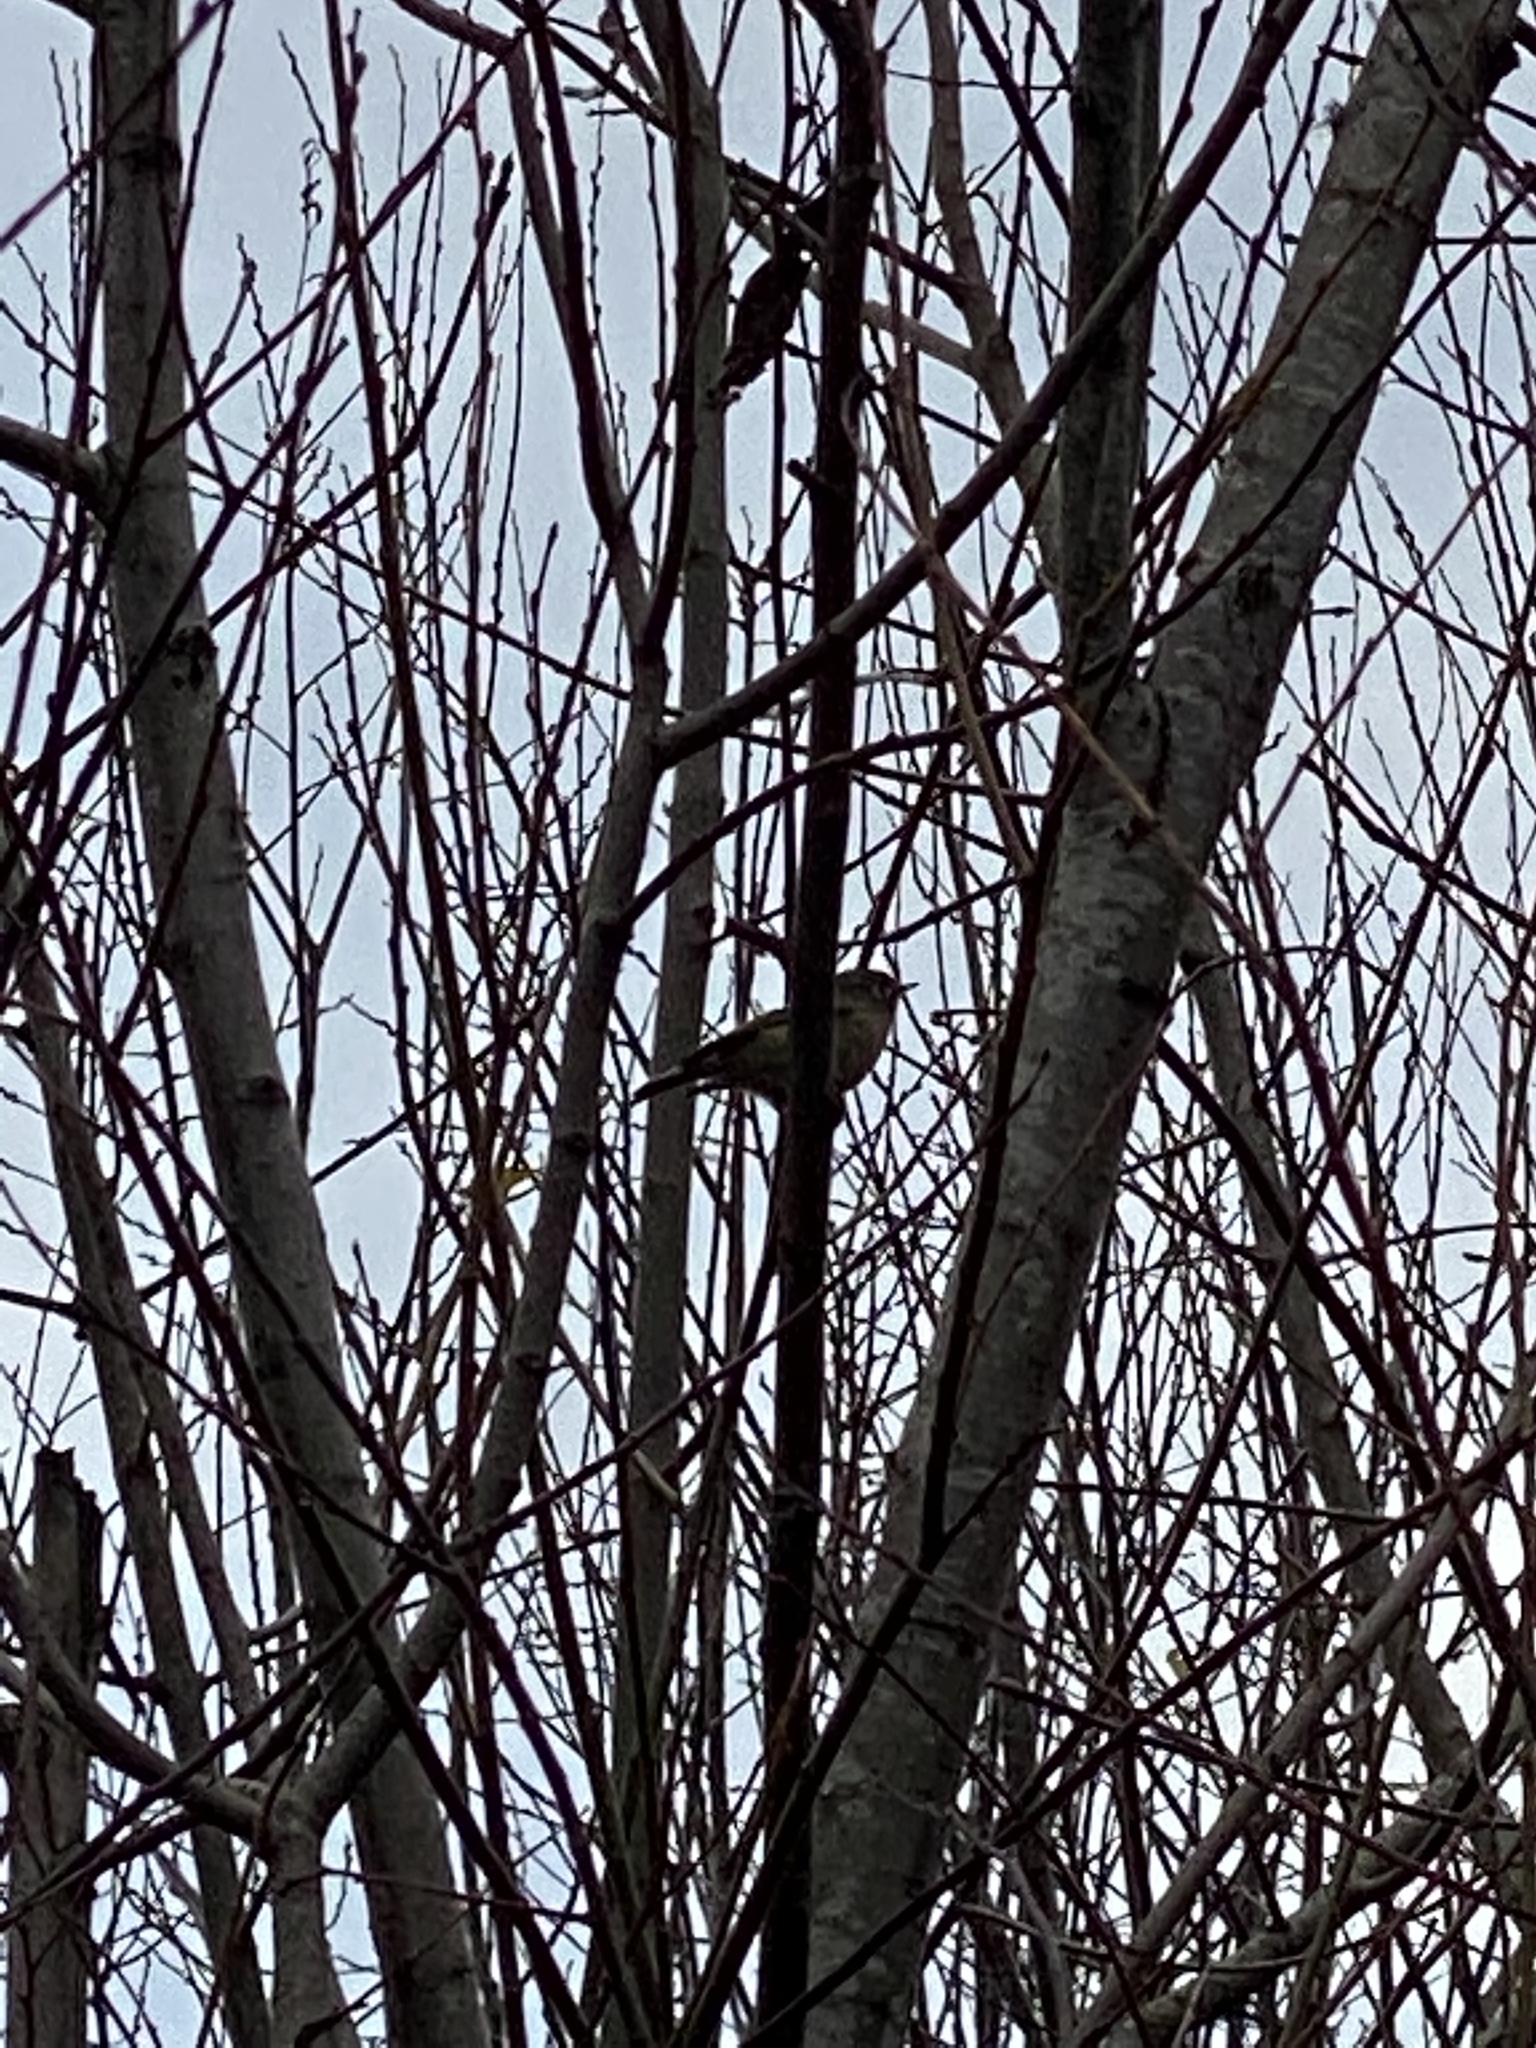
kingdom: Animalia
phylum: Chordata
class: Aves
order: Passeriformes
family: Regulidae
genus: Regulus
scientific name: Regulus calendula
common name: Ruby-crowned kinglet
